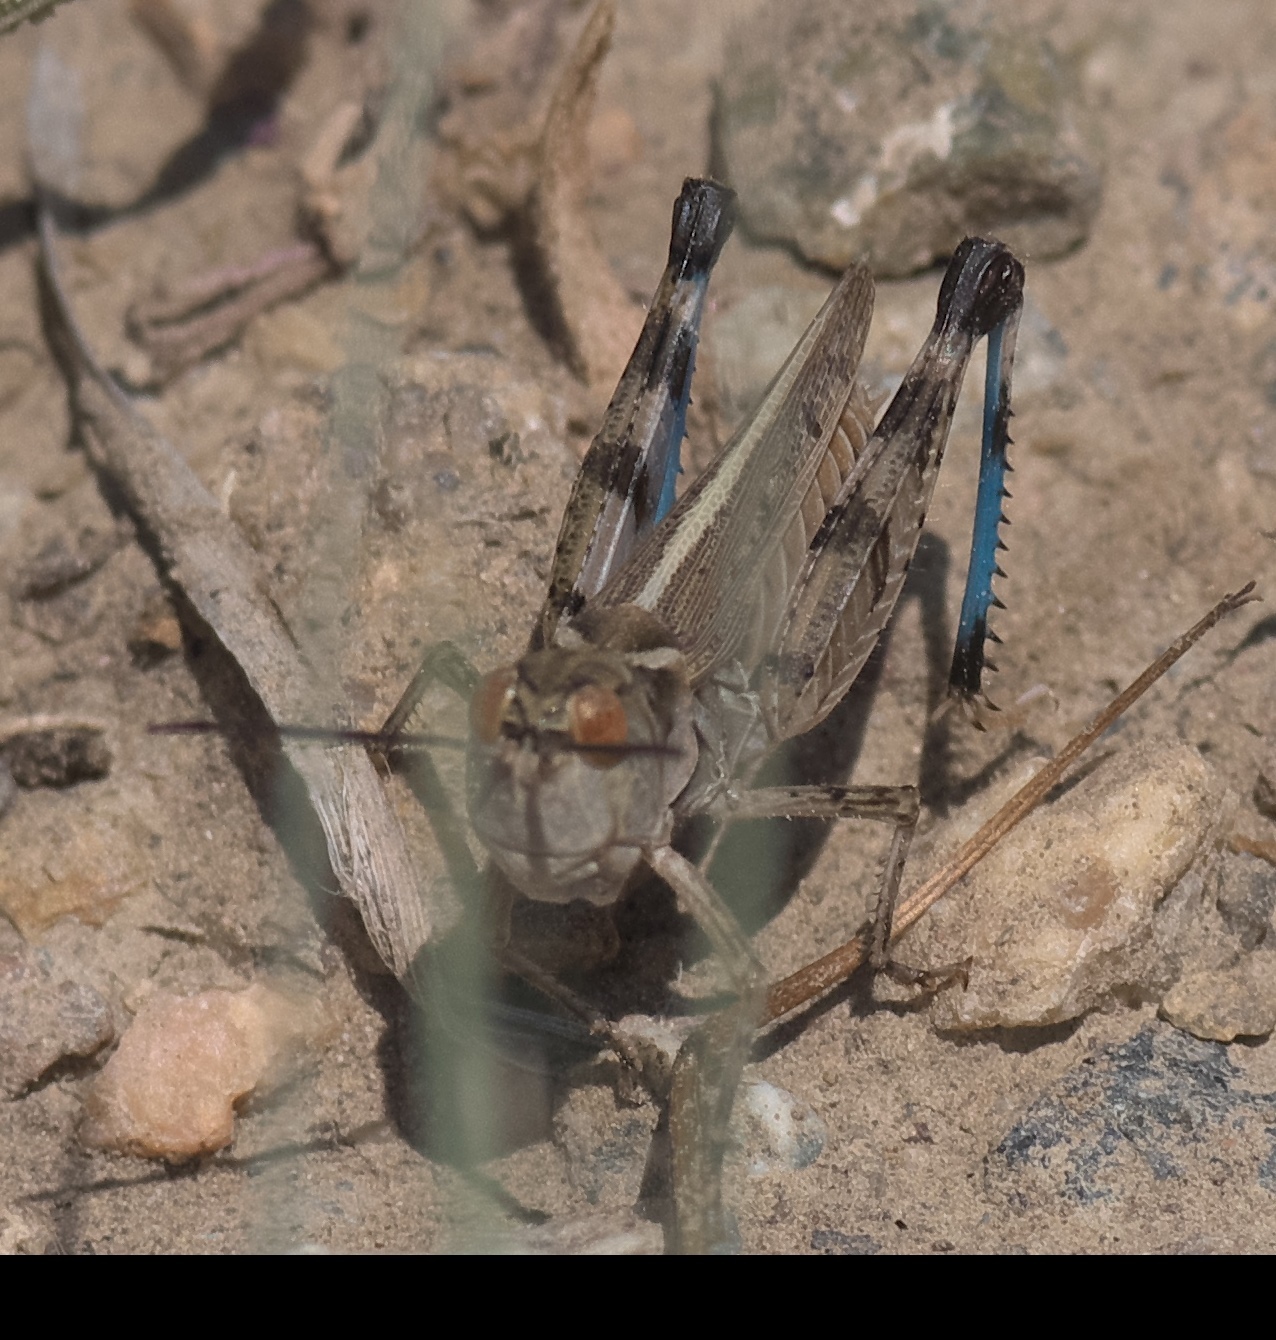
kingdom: Animalia
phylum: Arthropoda
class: Insecta
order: Orthoptera
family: Acrididae
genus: Aulocara
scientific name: Aulocara elliotti
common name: Bigheaded grasshopper
